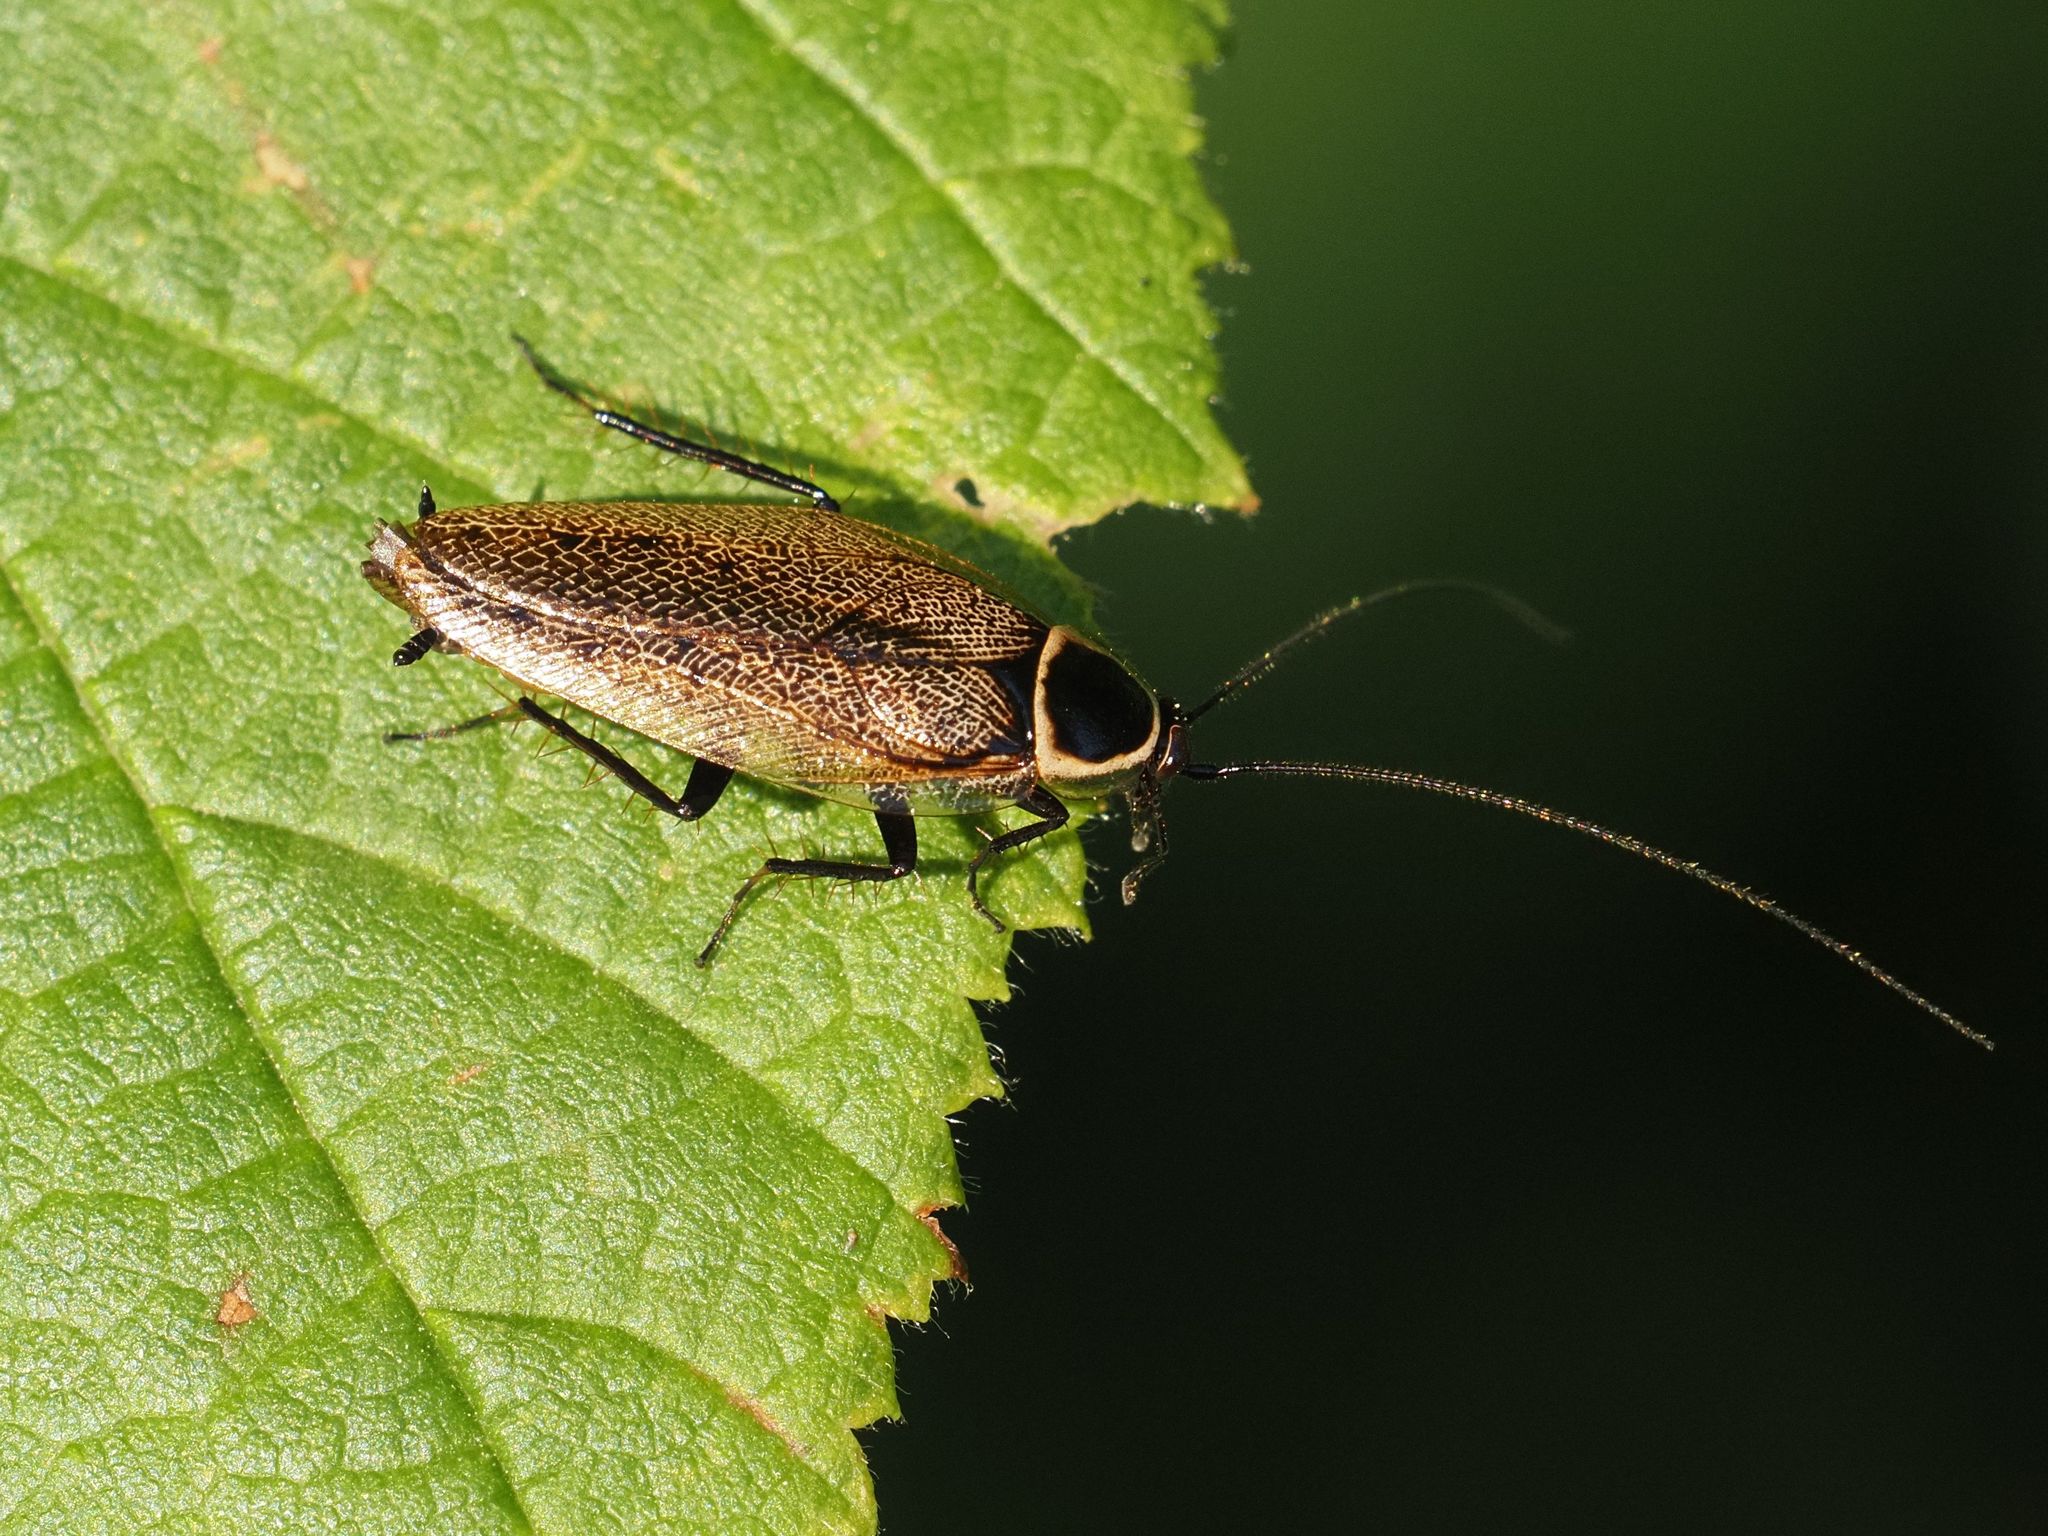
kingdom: Animalia
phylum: Arthropoda
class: Insecta
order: Blattodea
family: Ectobiidae
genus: Ectobius
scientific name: Ectobius sylvestris
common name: Forest cockroach
